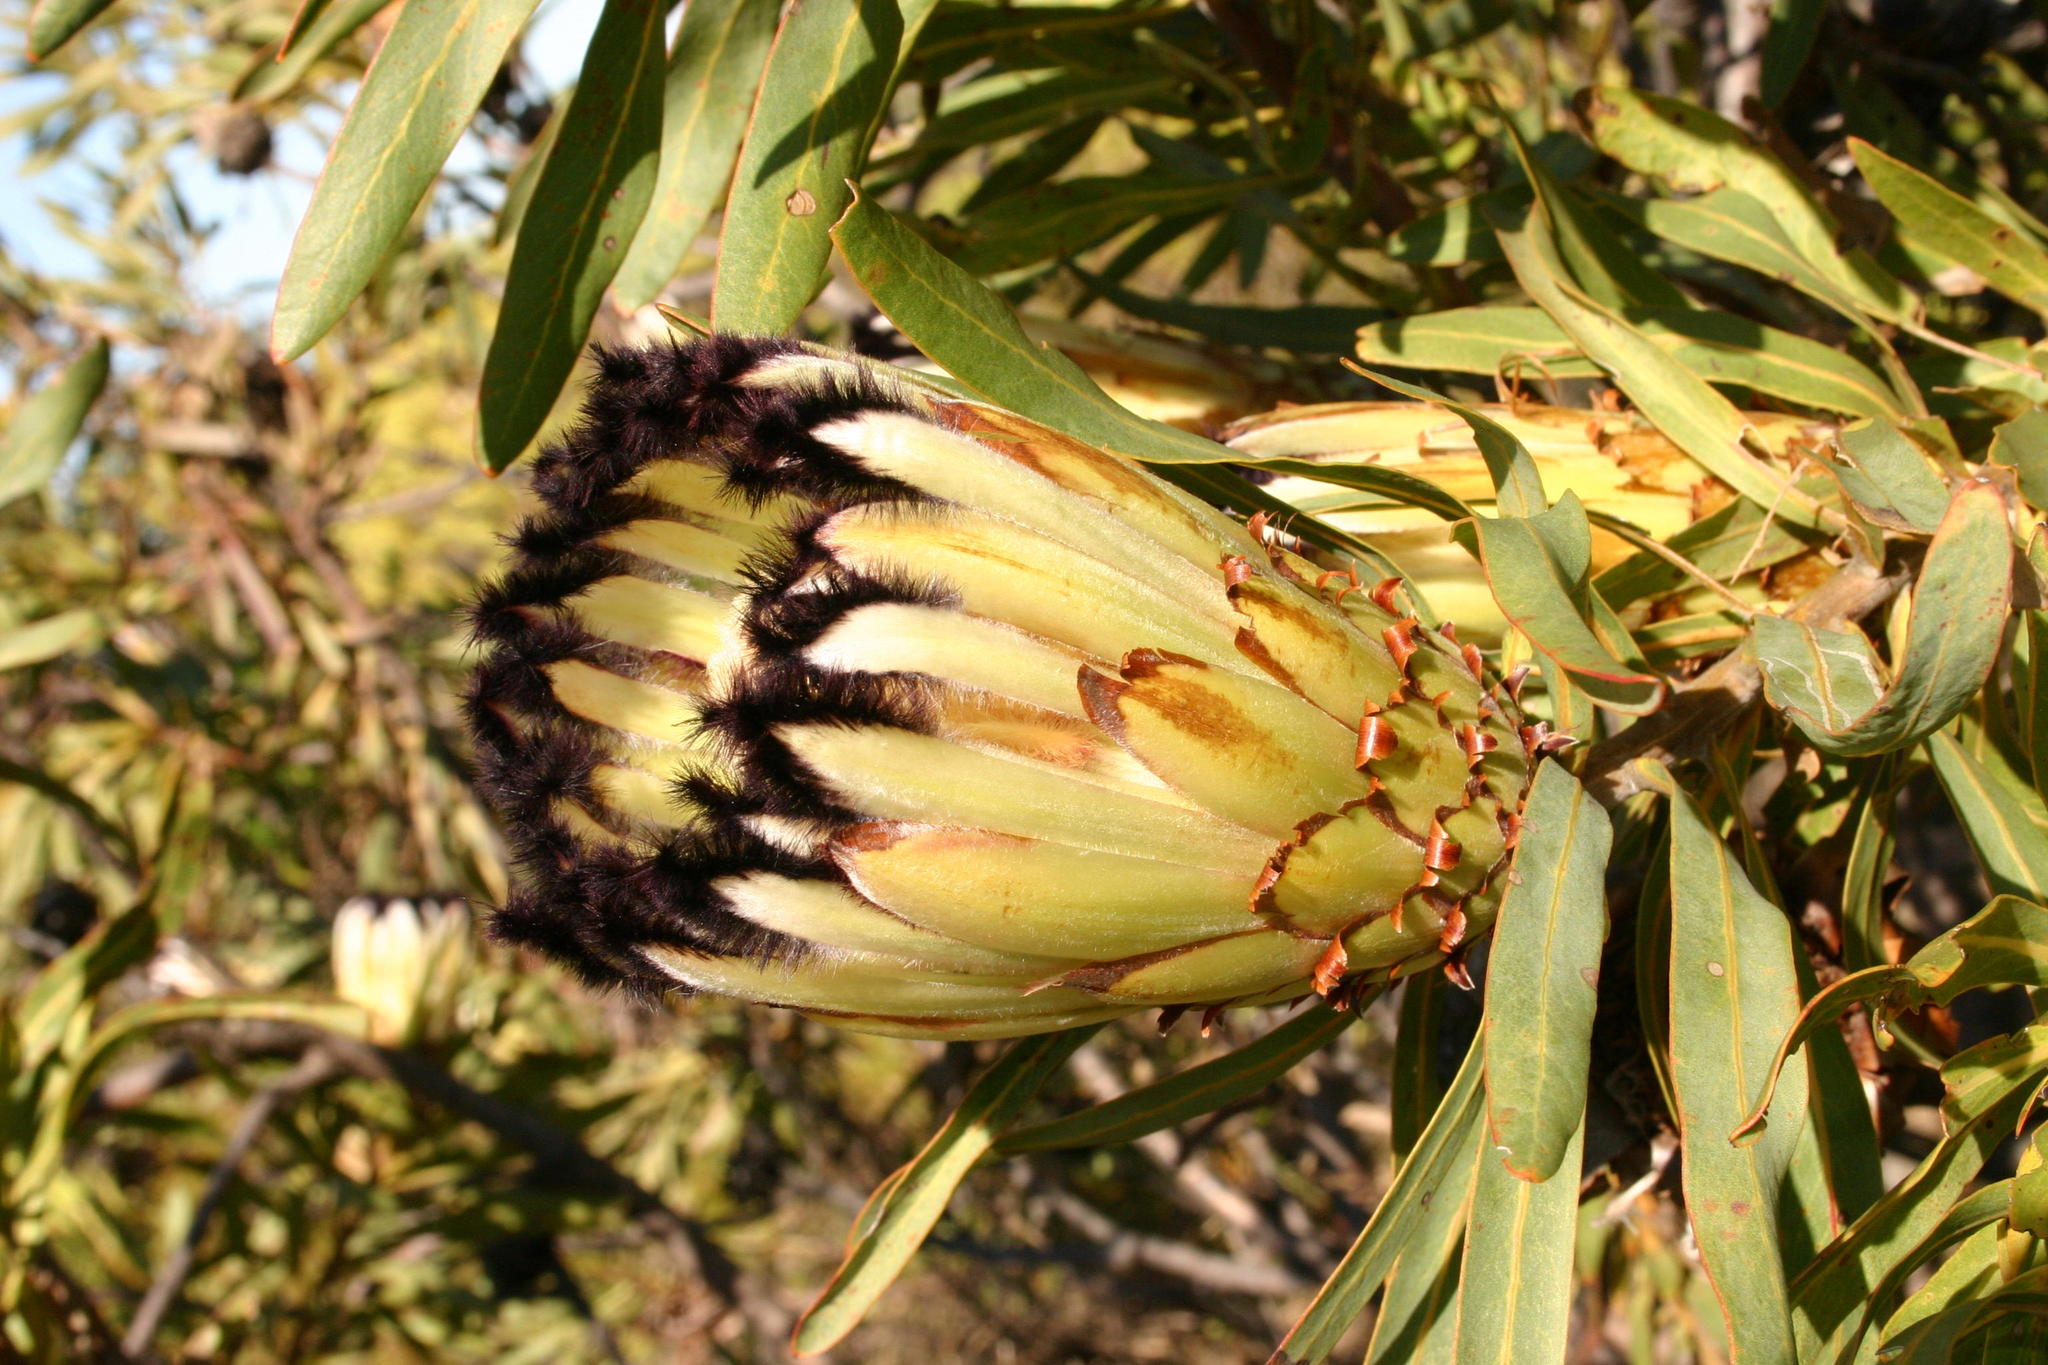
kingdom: Plantae
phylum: Tracheophyta
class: Magnoliopsida
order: Proteales
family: Proteaceae
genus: Protea
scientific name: Protea neriifolia
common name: Blue sugarbush
